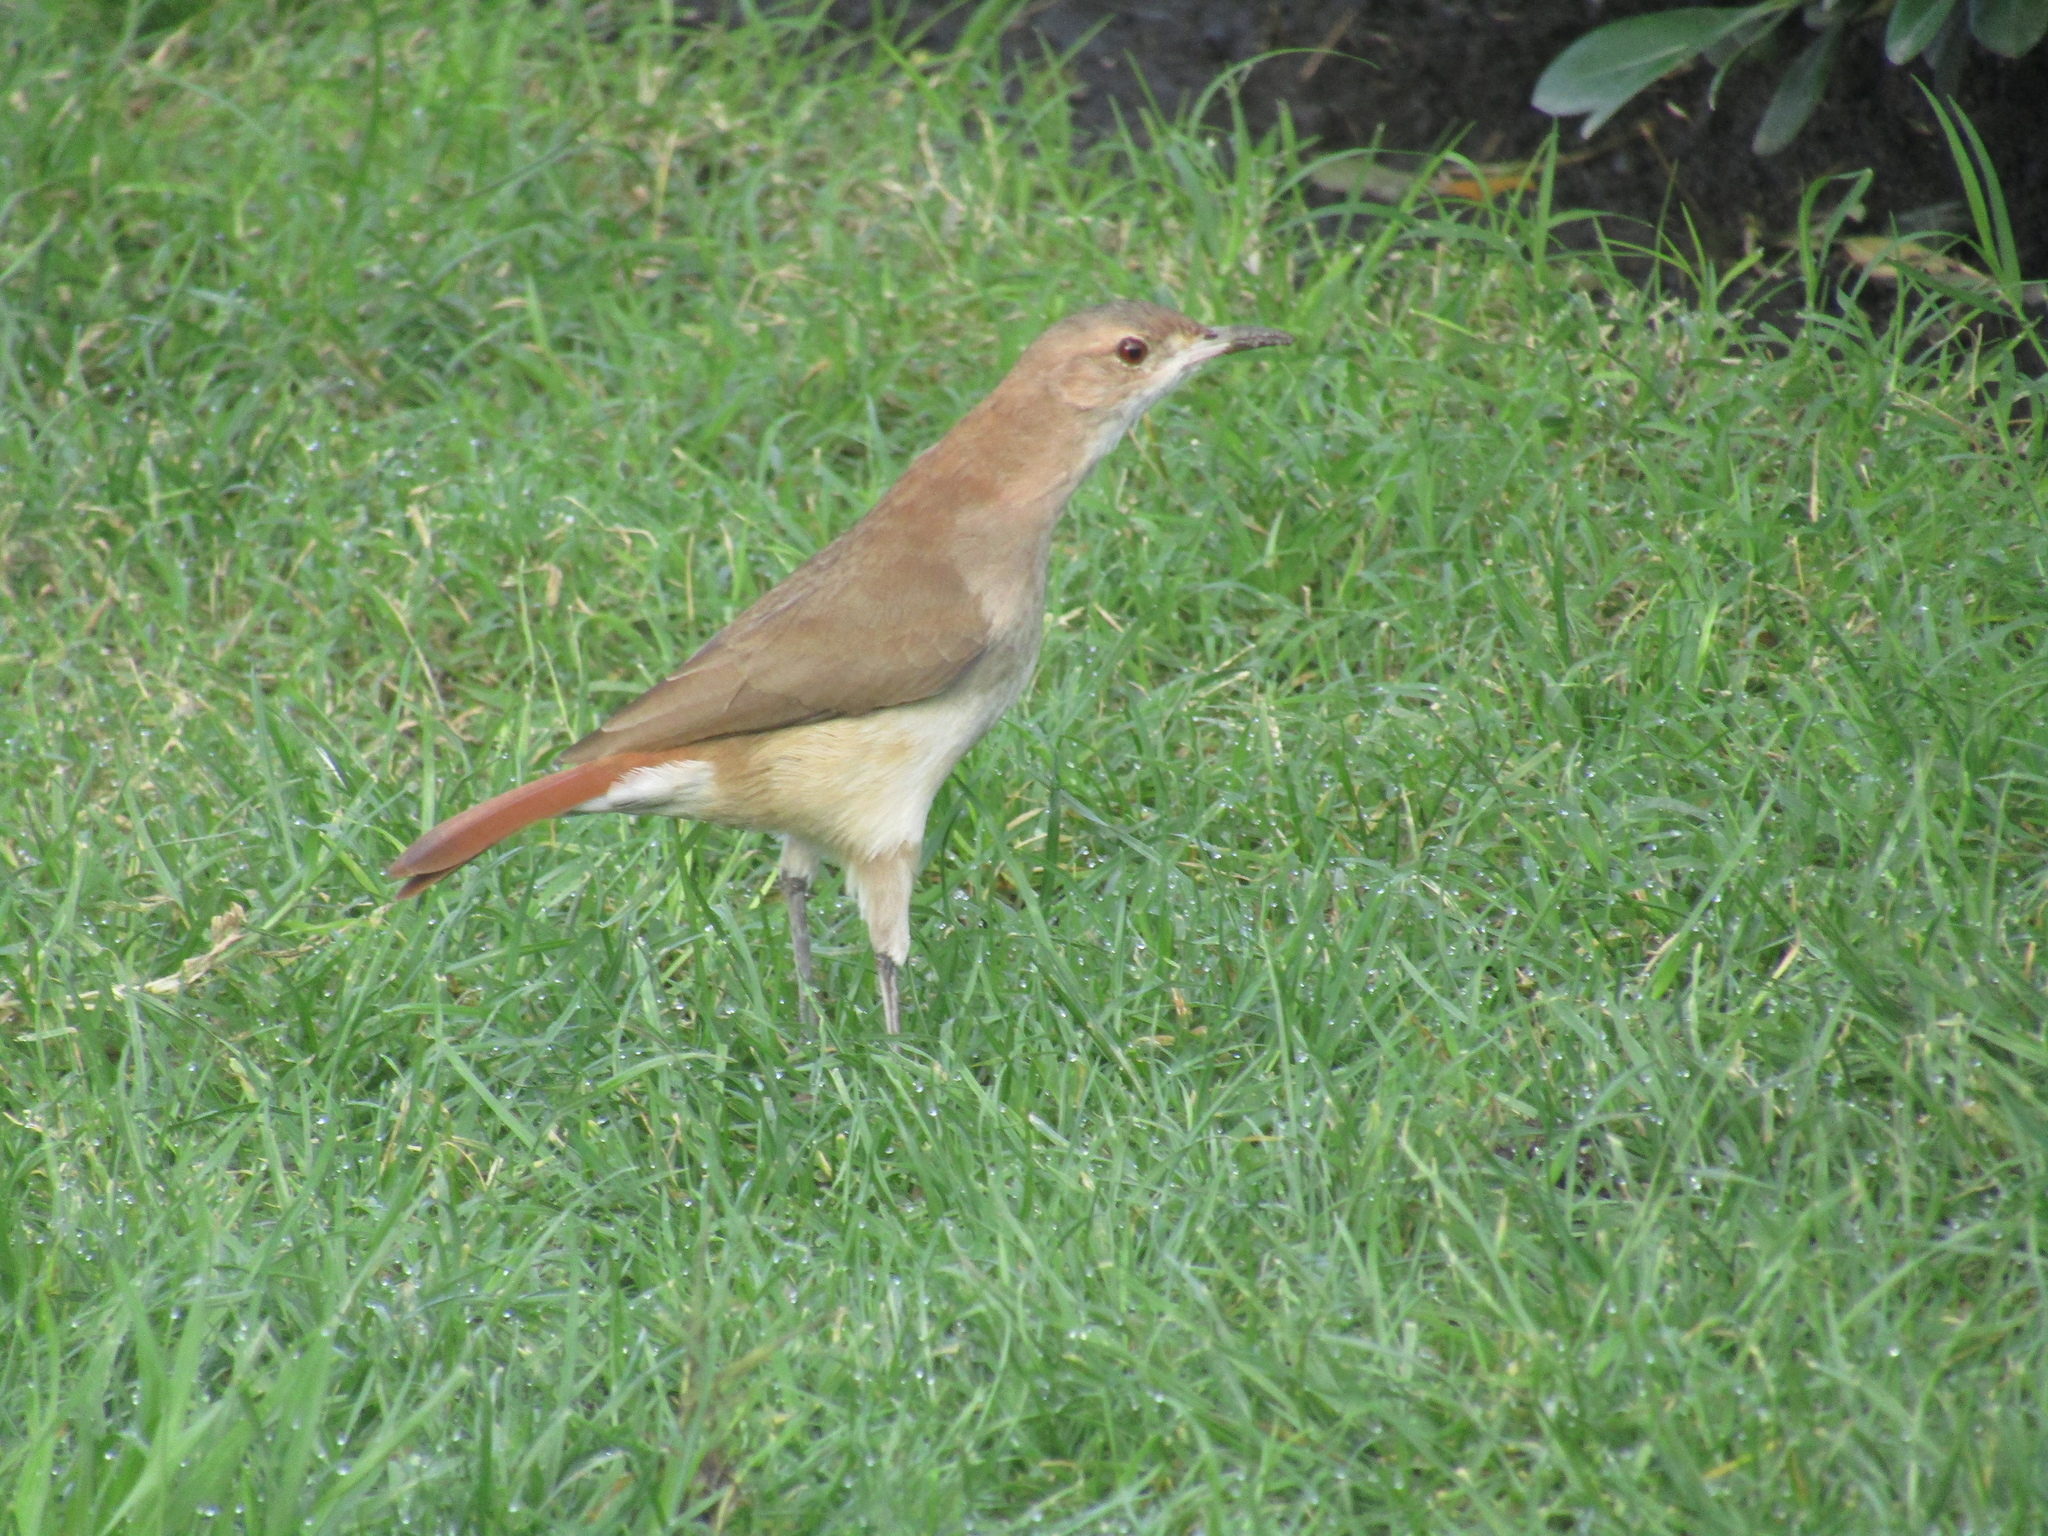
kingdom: Animalia
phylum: Chordata
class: Aves
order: Passeriformes
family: Furnariidae
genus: Furnarius
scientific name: Furnarius rufus
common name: Rufous hornero
